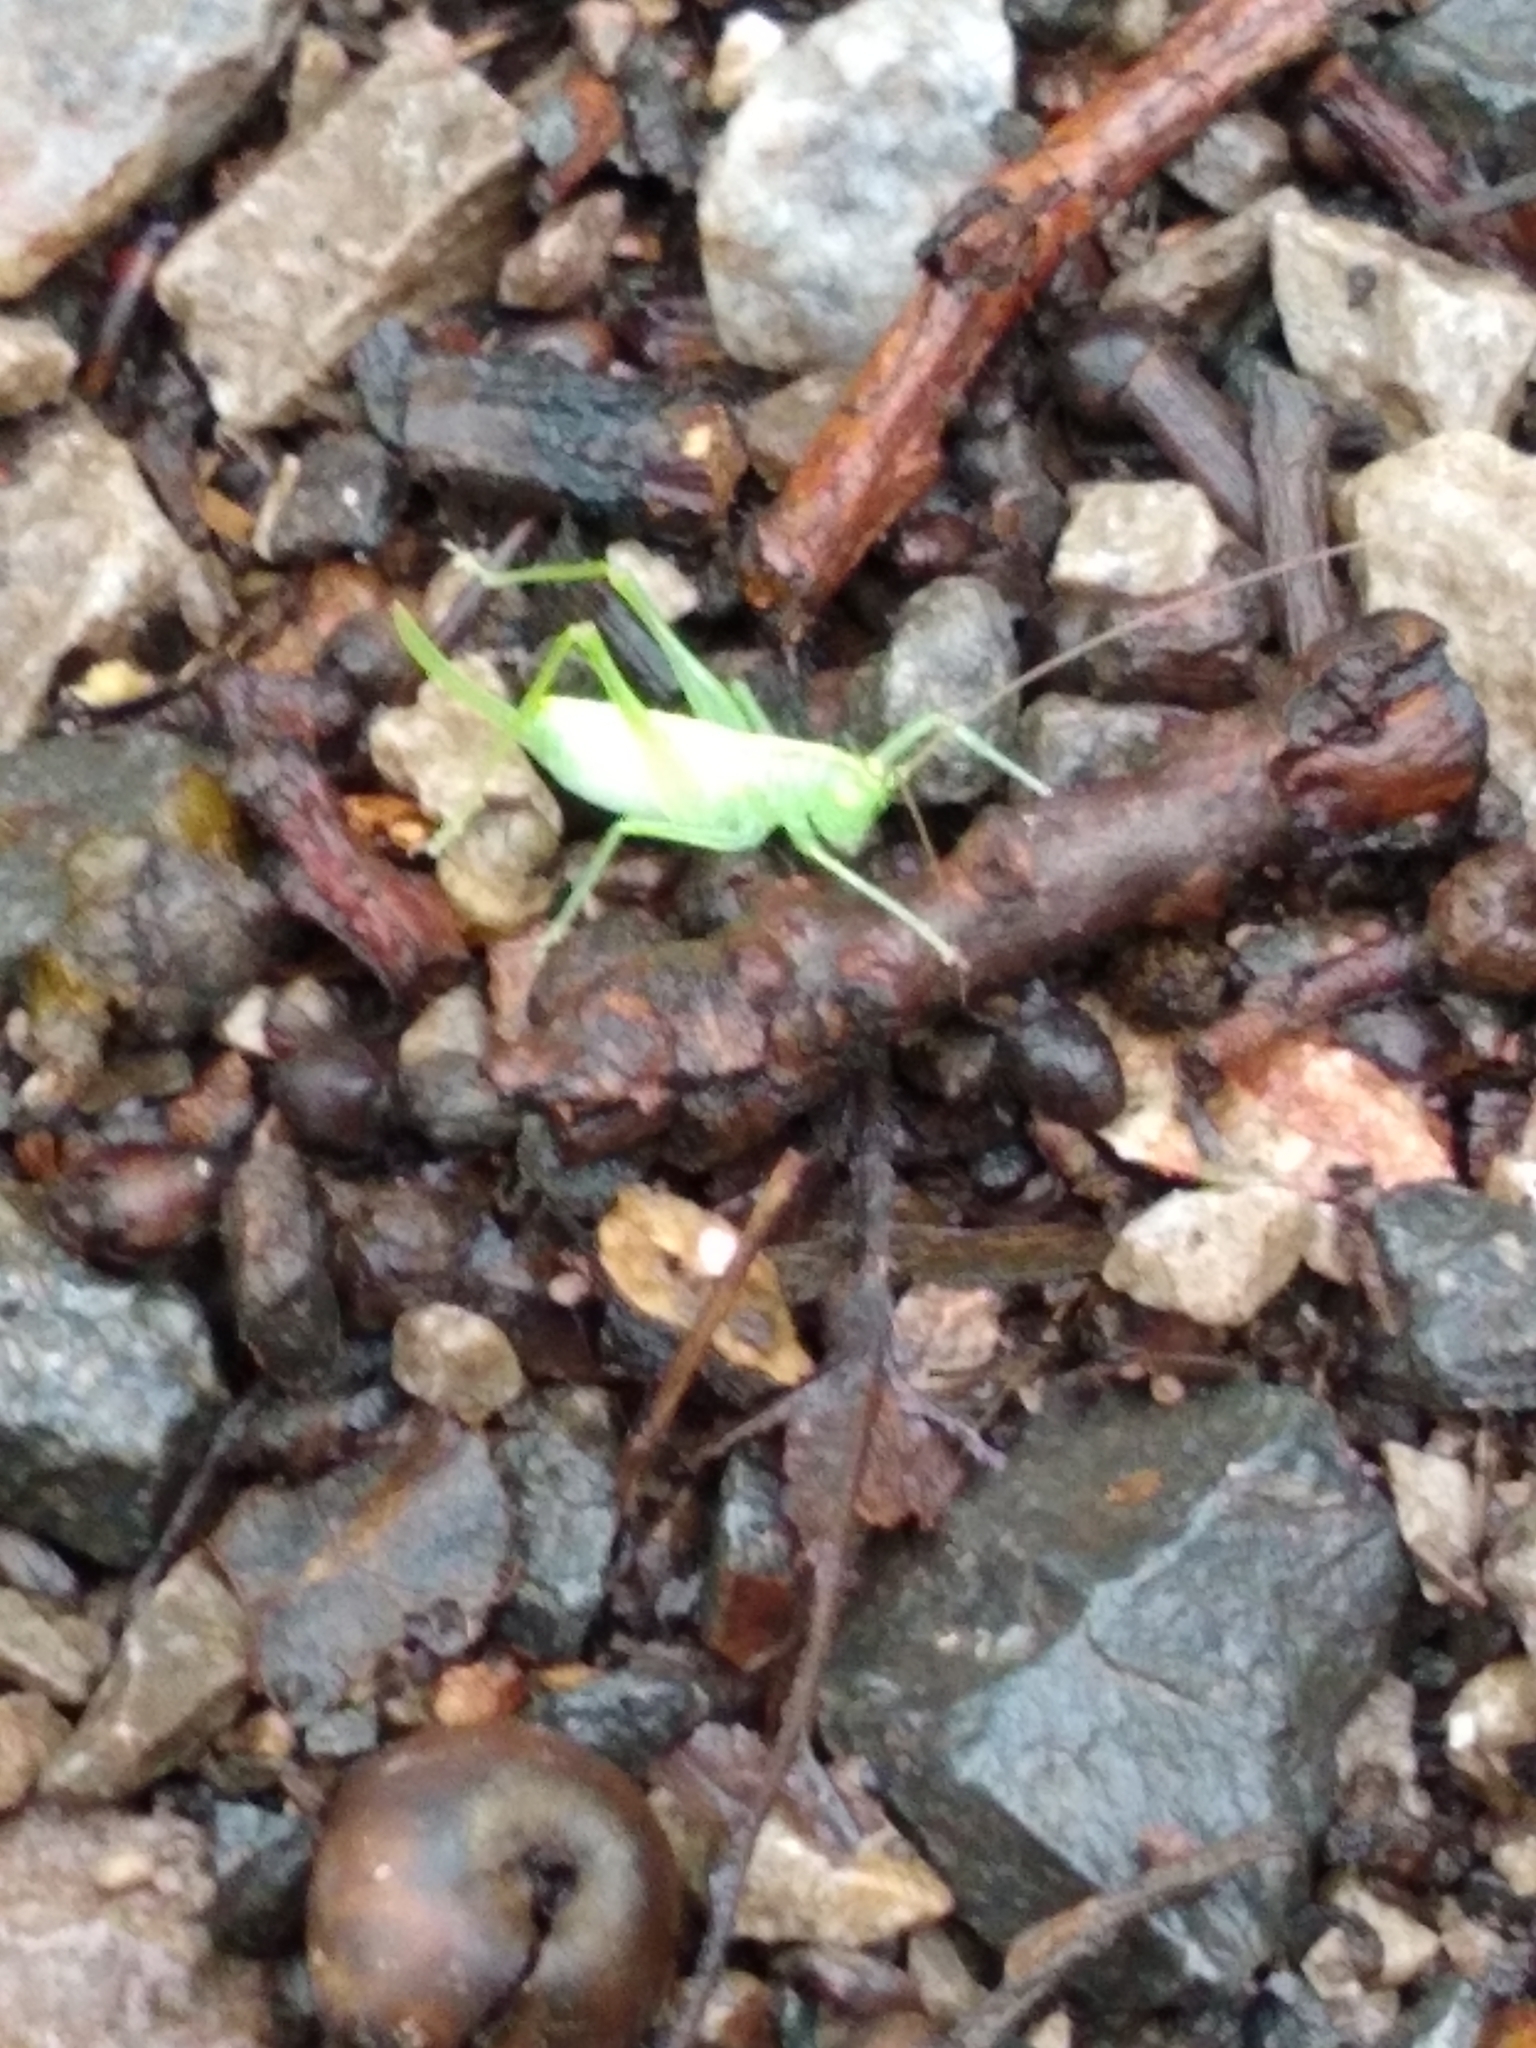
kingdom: Animalia
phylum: Arthropoda
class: Insecta
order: Orthoptera
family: Tettigoniidae
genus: Meconema
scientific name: Meconema meridionale
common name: Southern oak bush-cricket
